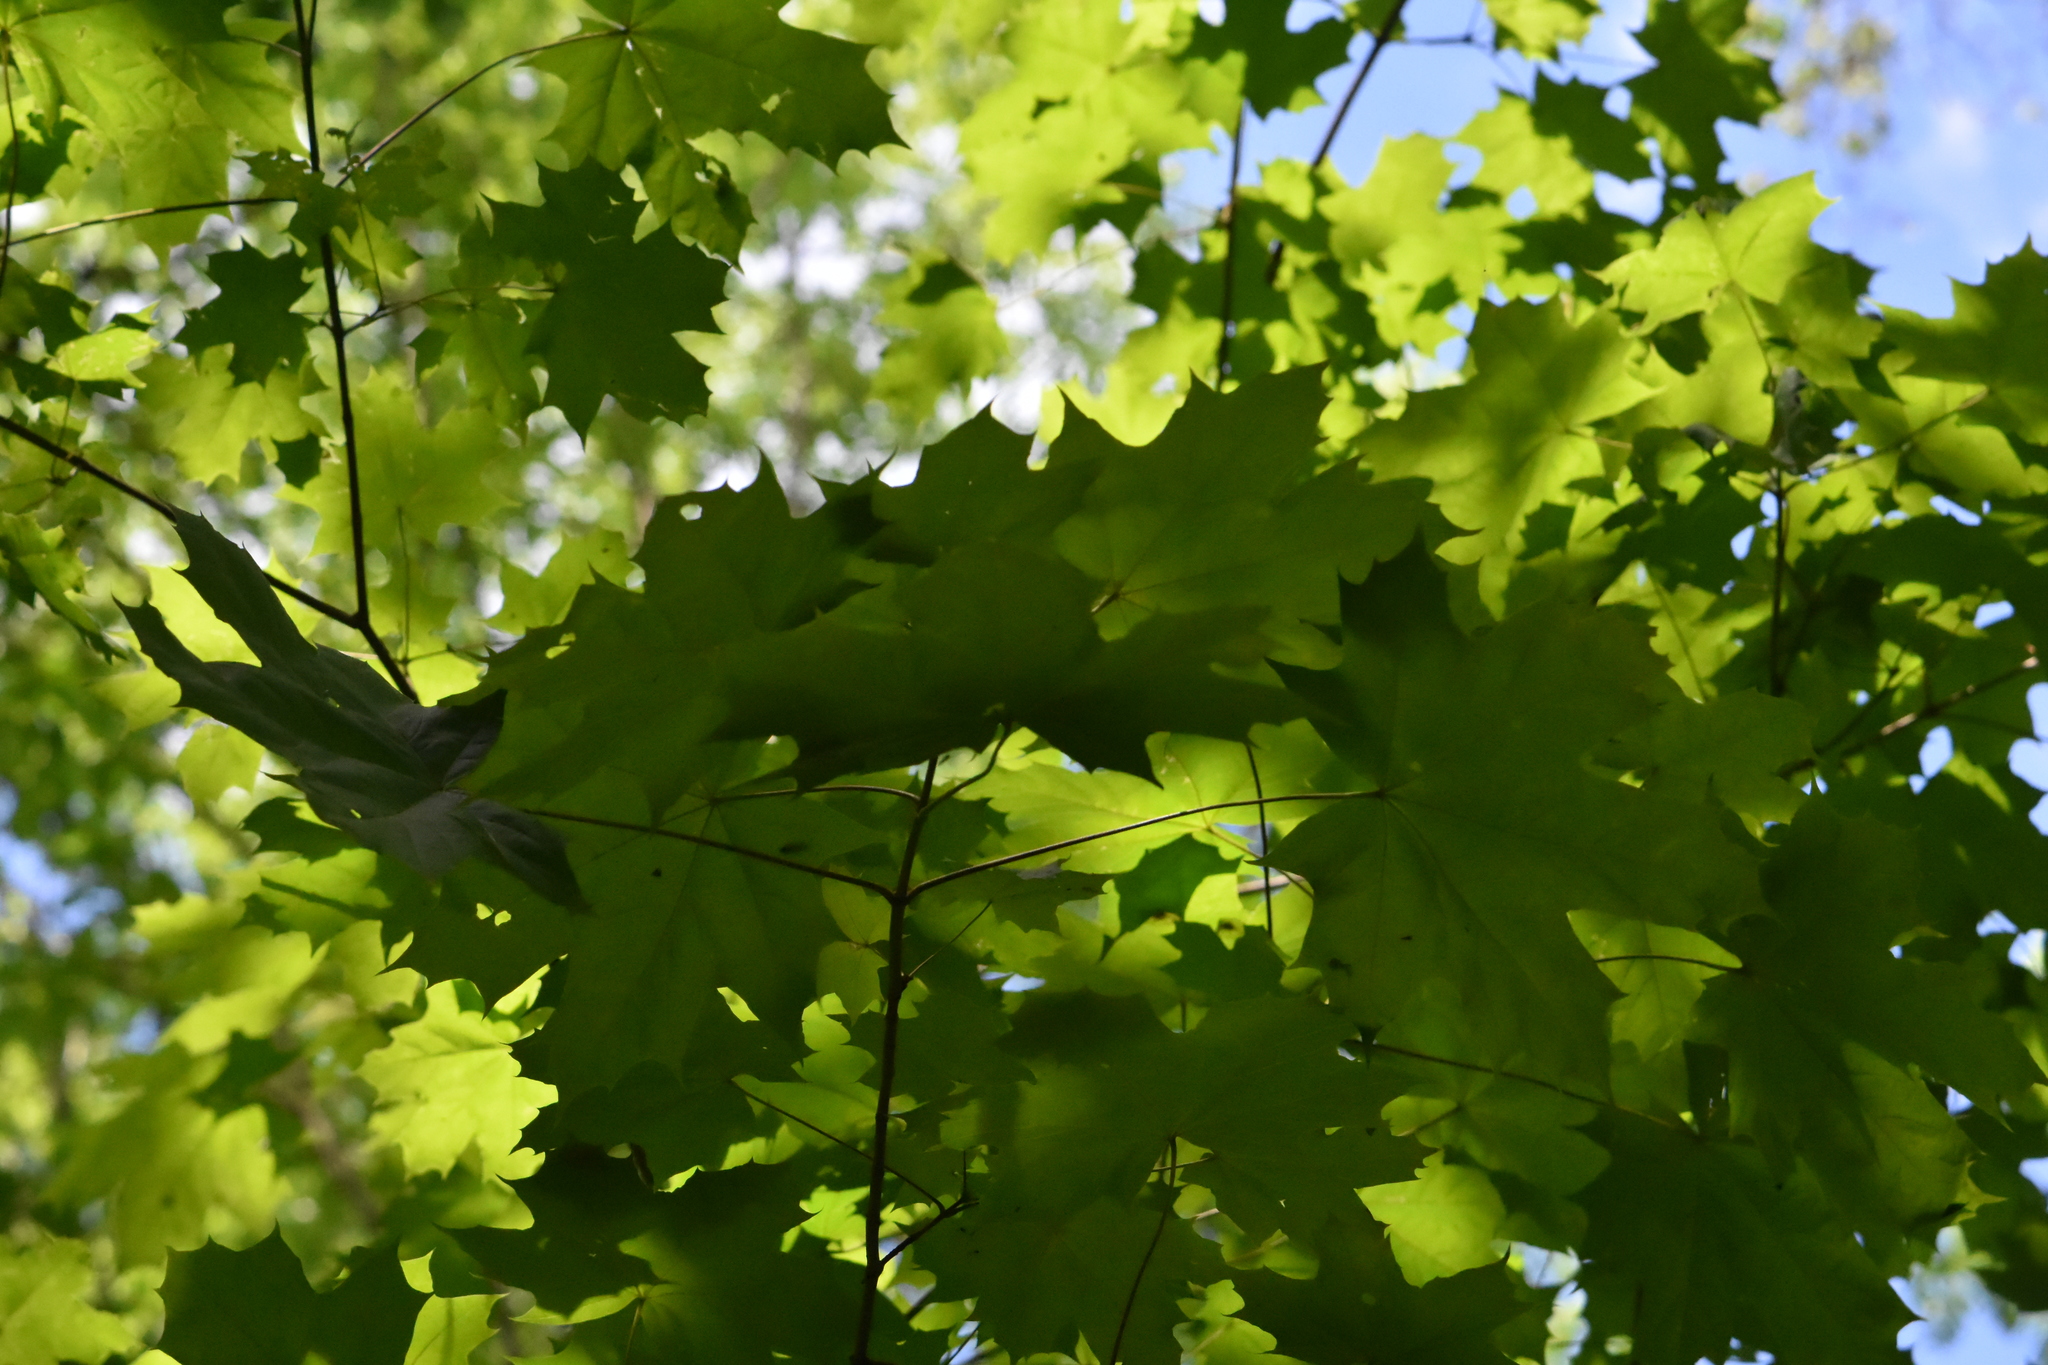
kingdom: Plantae
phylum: Tracheophyta
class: Magnoliopsida
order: Sapindales
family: Sapindaceae
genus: Acer
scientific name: Acer platanoides
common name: Norway maple
